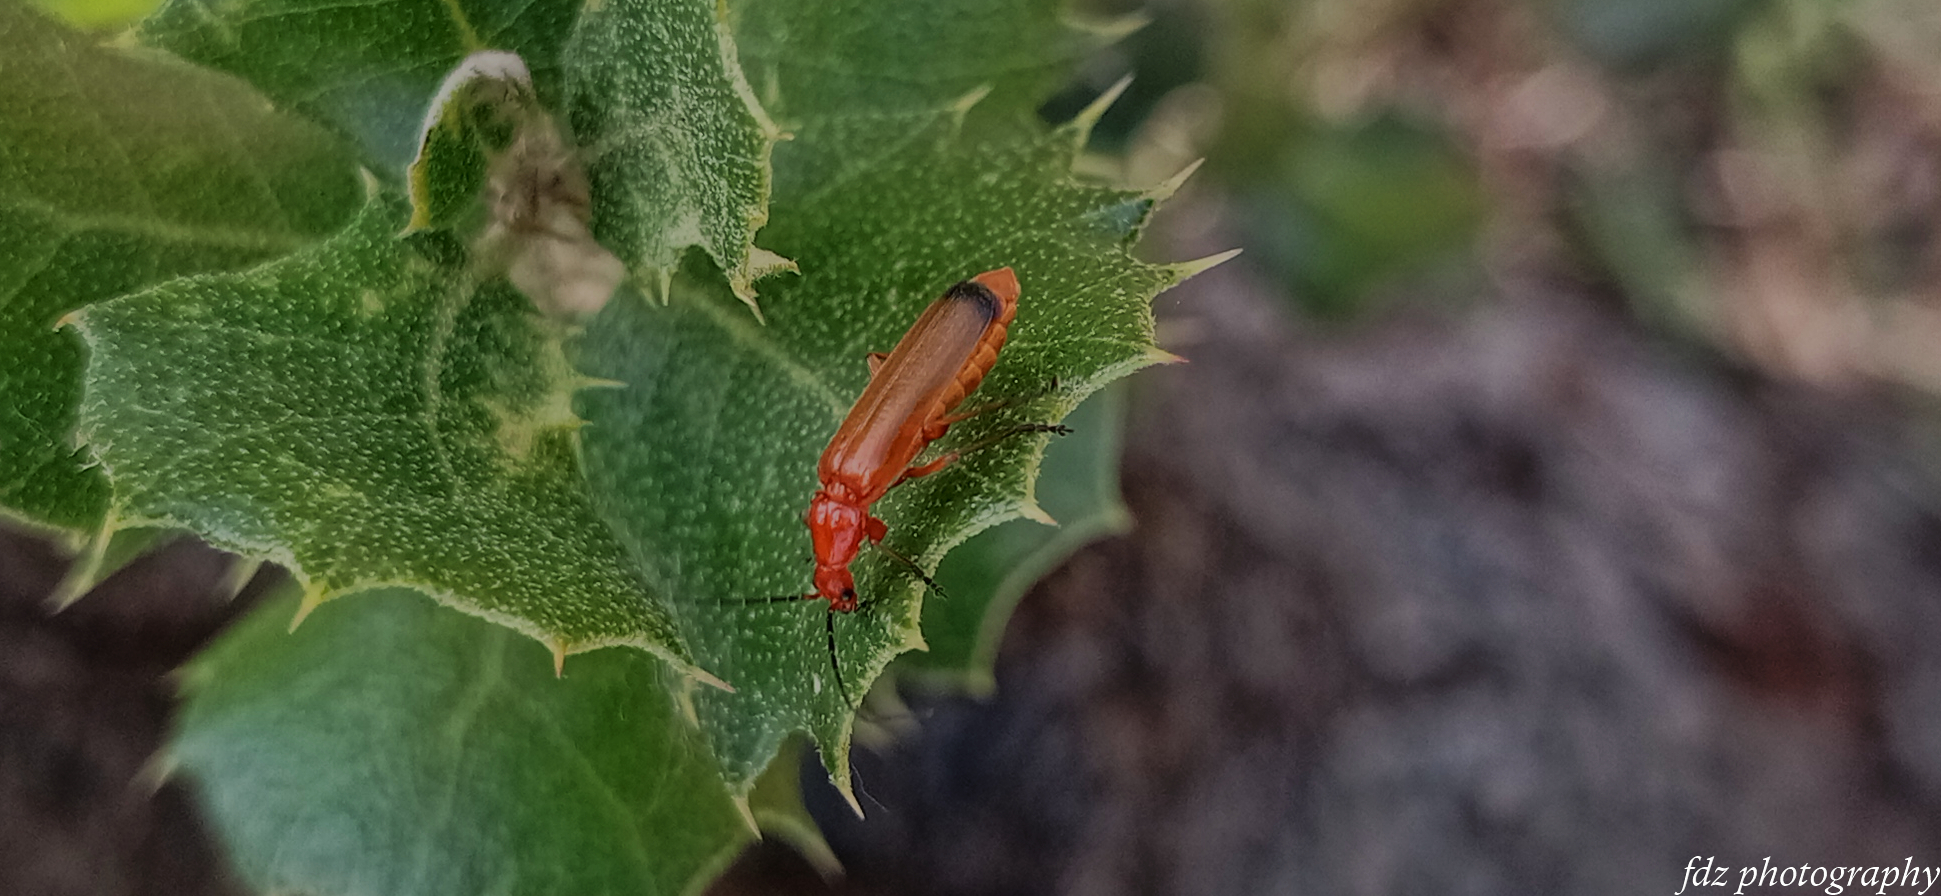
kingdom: Animalia
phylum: Arthropoda
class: Insecta
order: Coleoptera
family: Cantharidae
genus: Rhagonycha
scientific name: Rhagonycha fulva
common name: Common red soldier beetle
